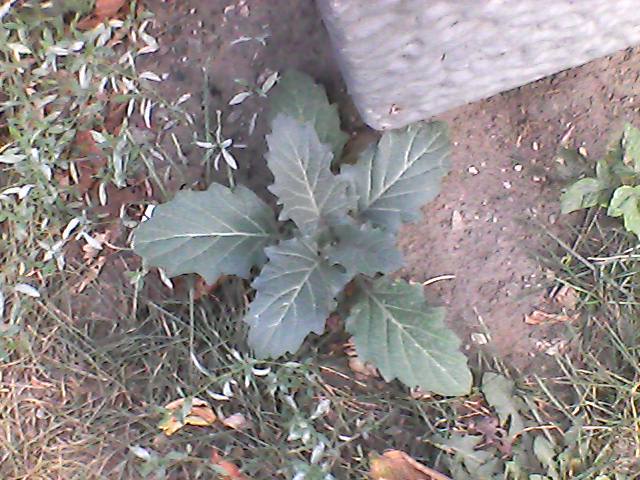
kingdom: Plantae
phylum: Tracheophyta
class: Magnoliopsida
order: Solanales
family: Solanaceae
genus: Hyoscyamus
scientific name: Hyoscyamus niger
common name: Henbane
